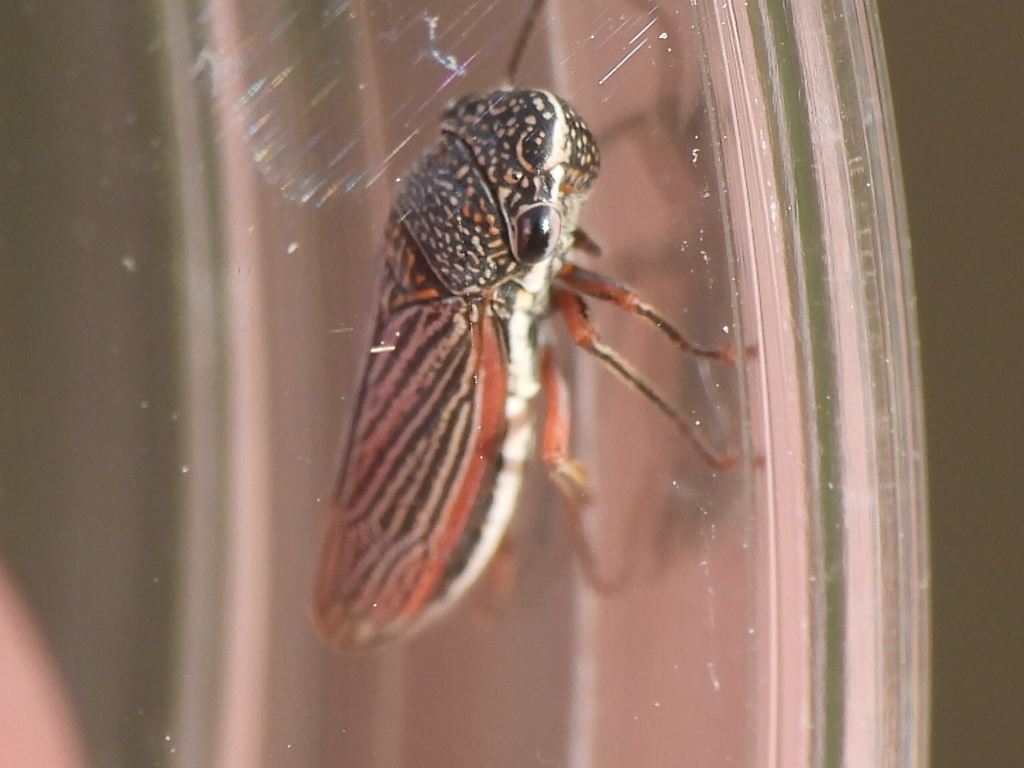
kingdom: Animalia
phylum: Arthropoda
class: Insecta
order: Hemiptera
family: Cicadellidae
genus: Cuerna
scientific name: Cuerna costalis
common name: Lateral-lined sharpshooter
